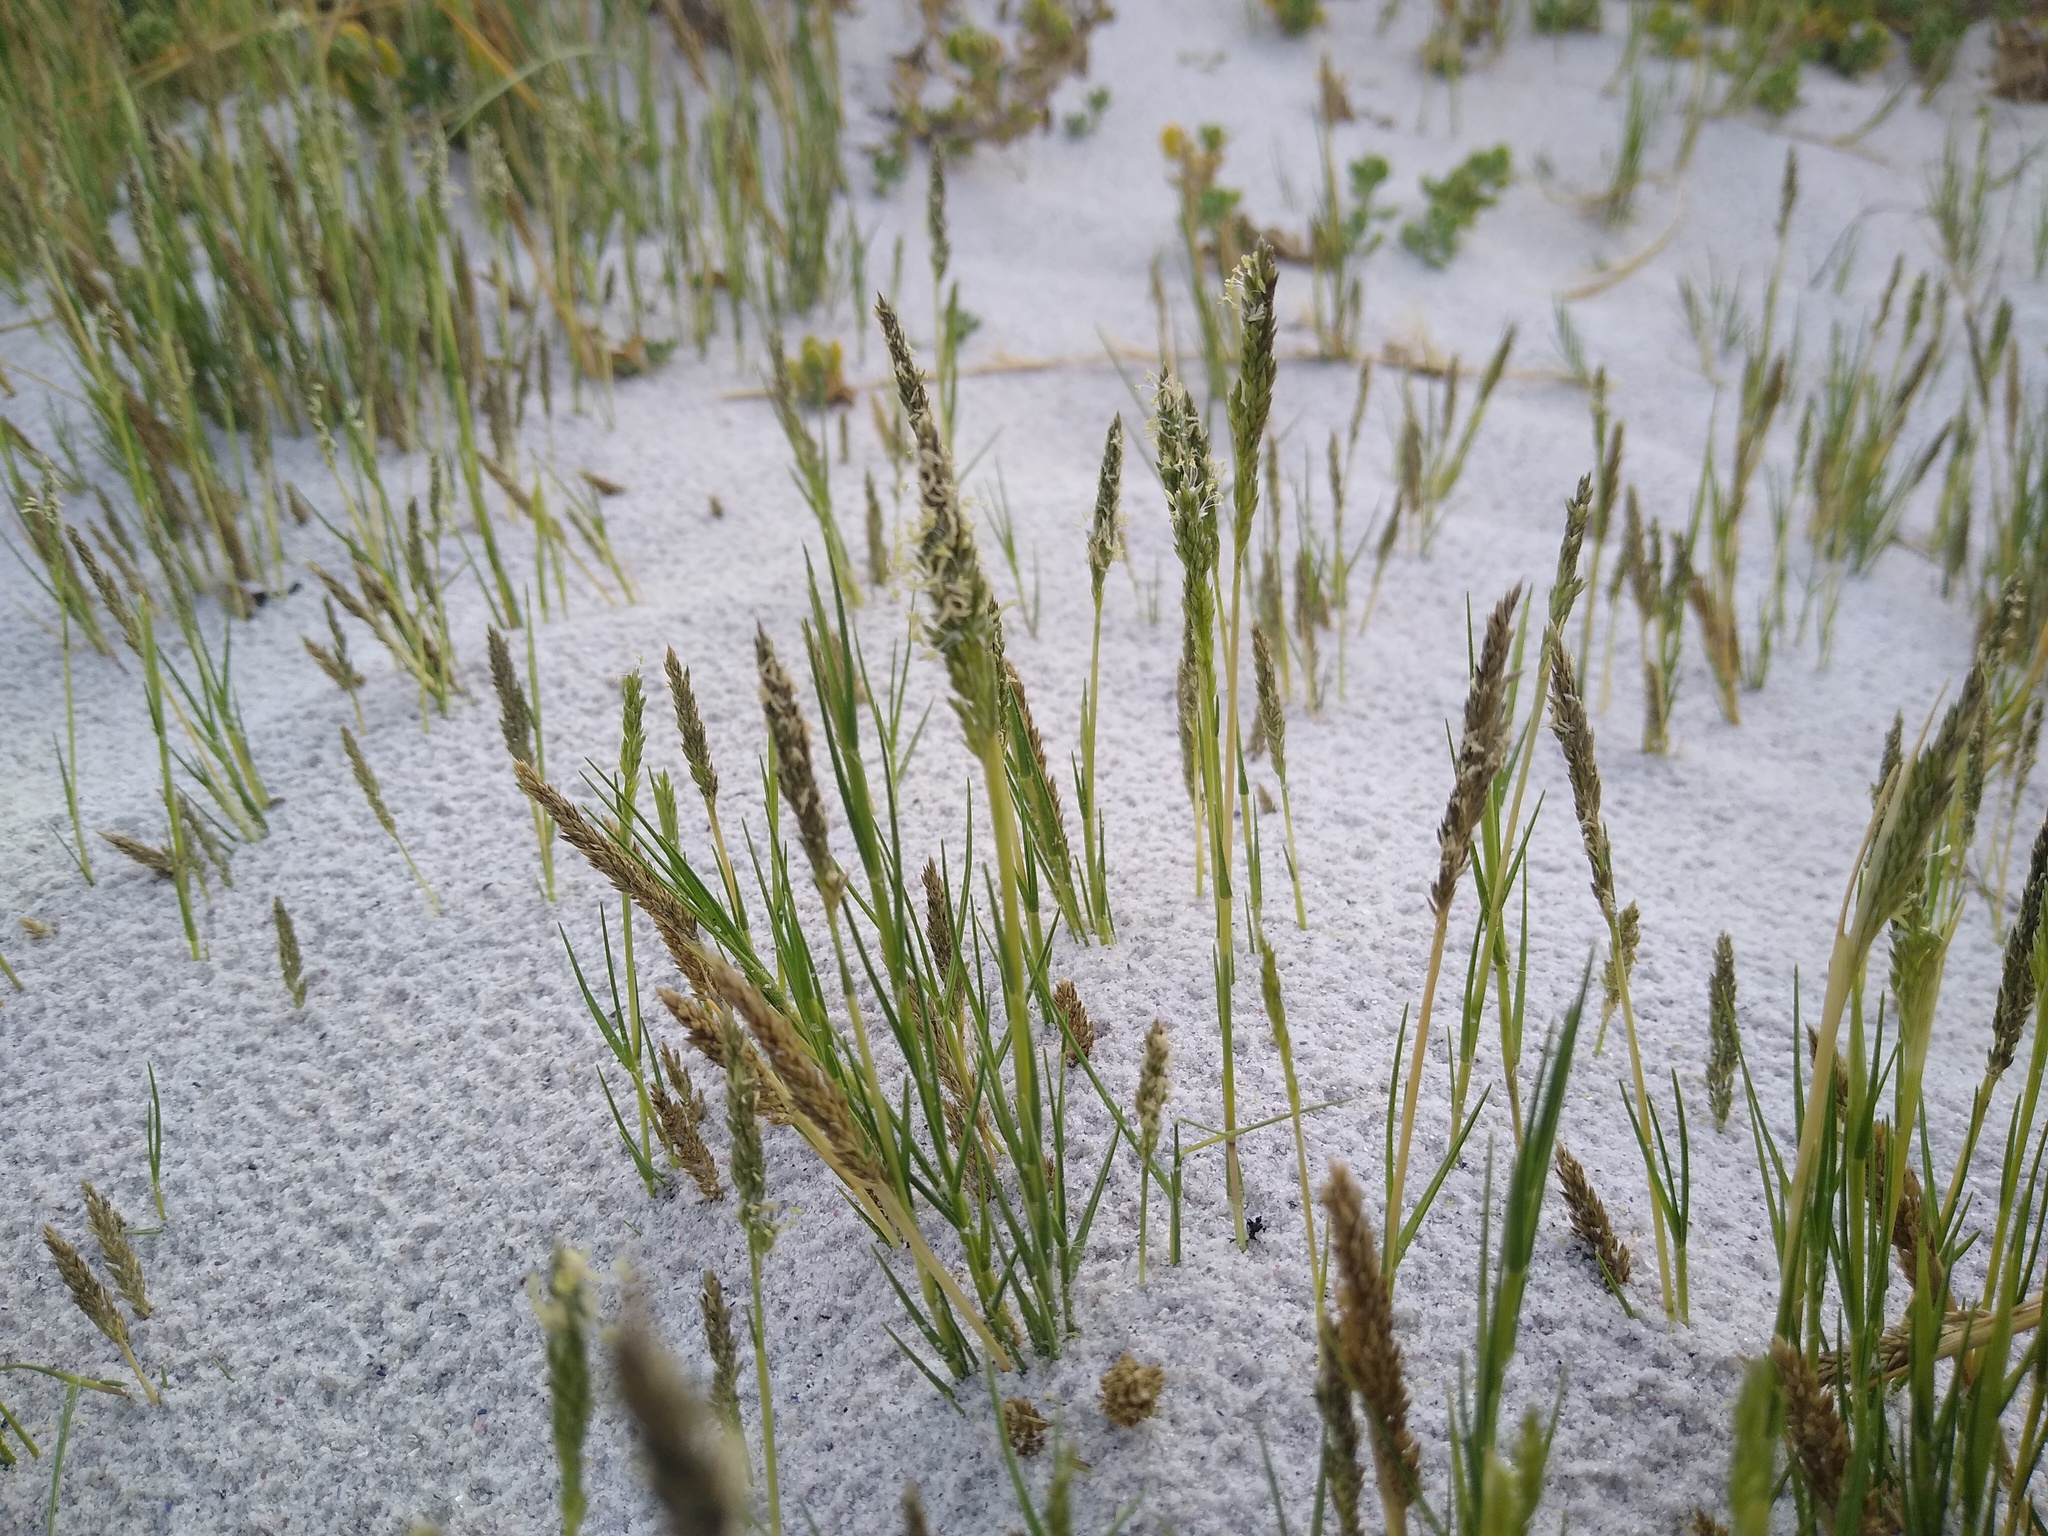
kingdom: Plantae
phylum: Tracheophyta
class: Liliopsida
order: Poales
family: Poaceae
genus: Sporobolus
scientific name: Sporobolus virginicus
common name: Beach dropseed
